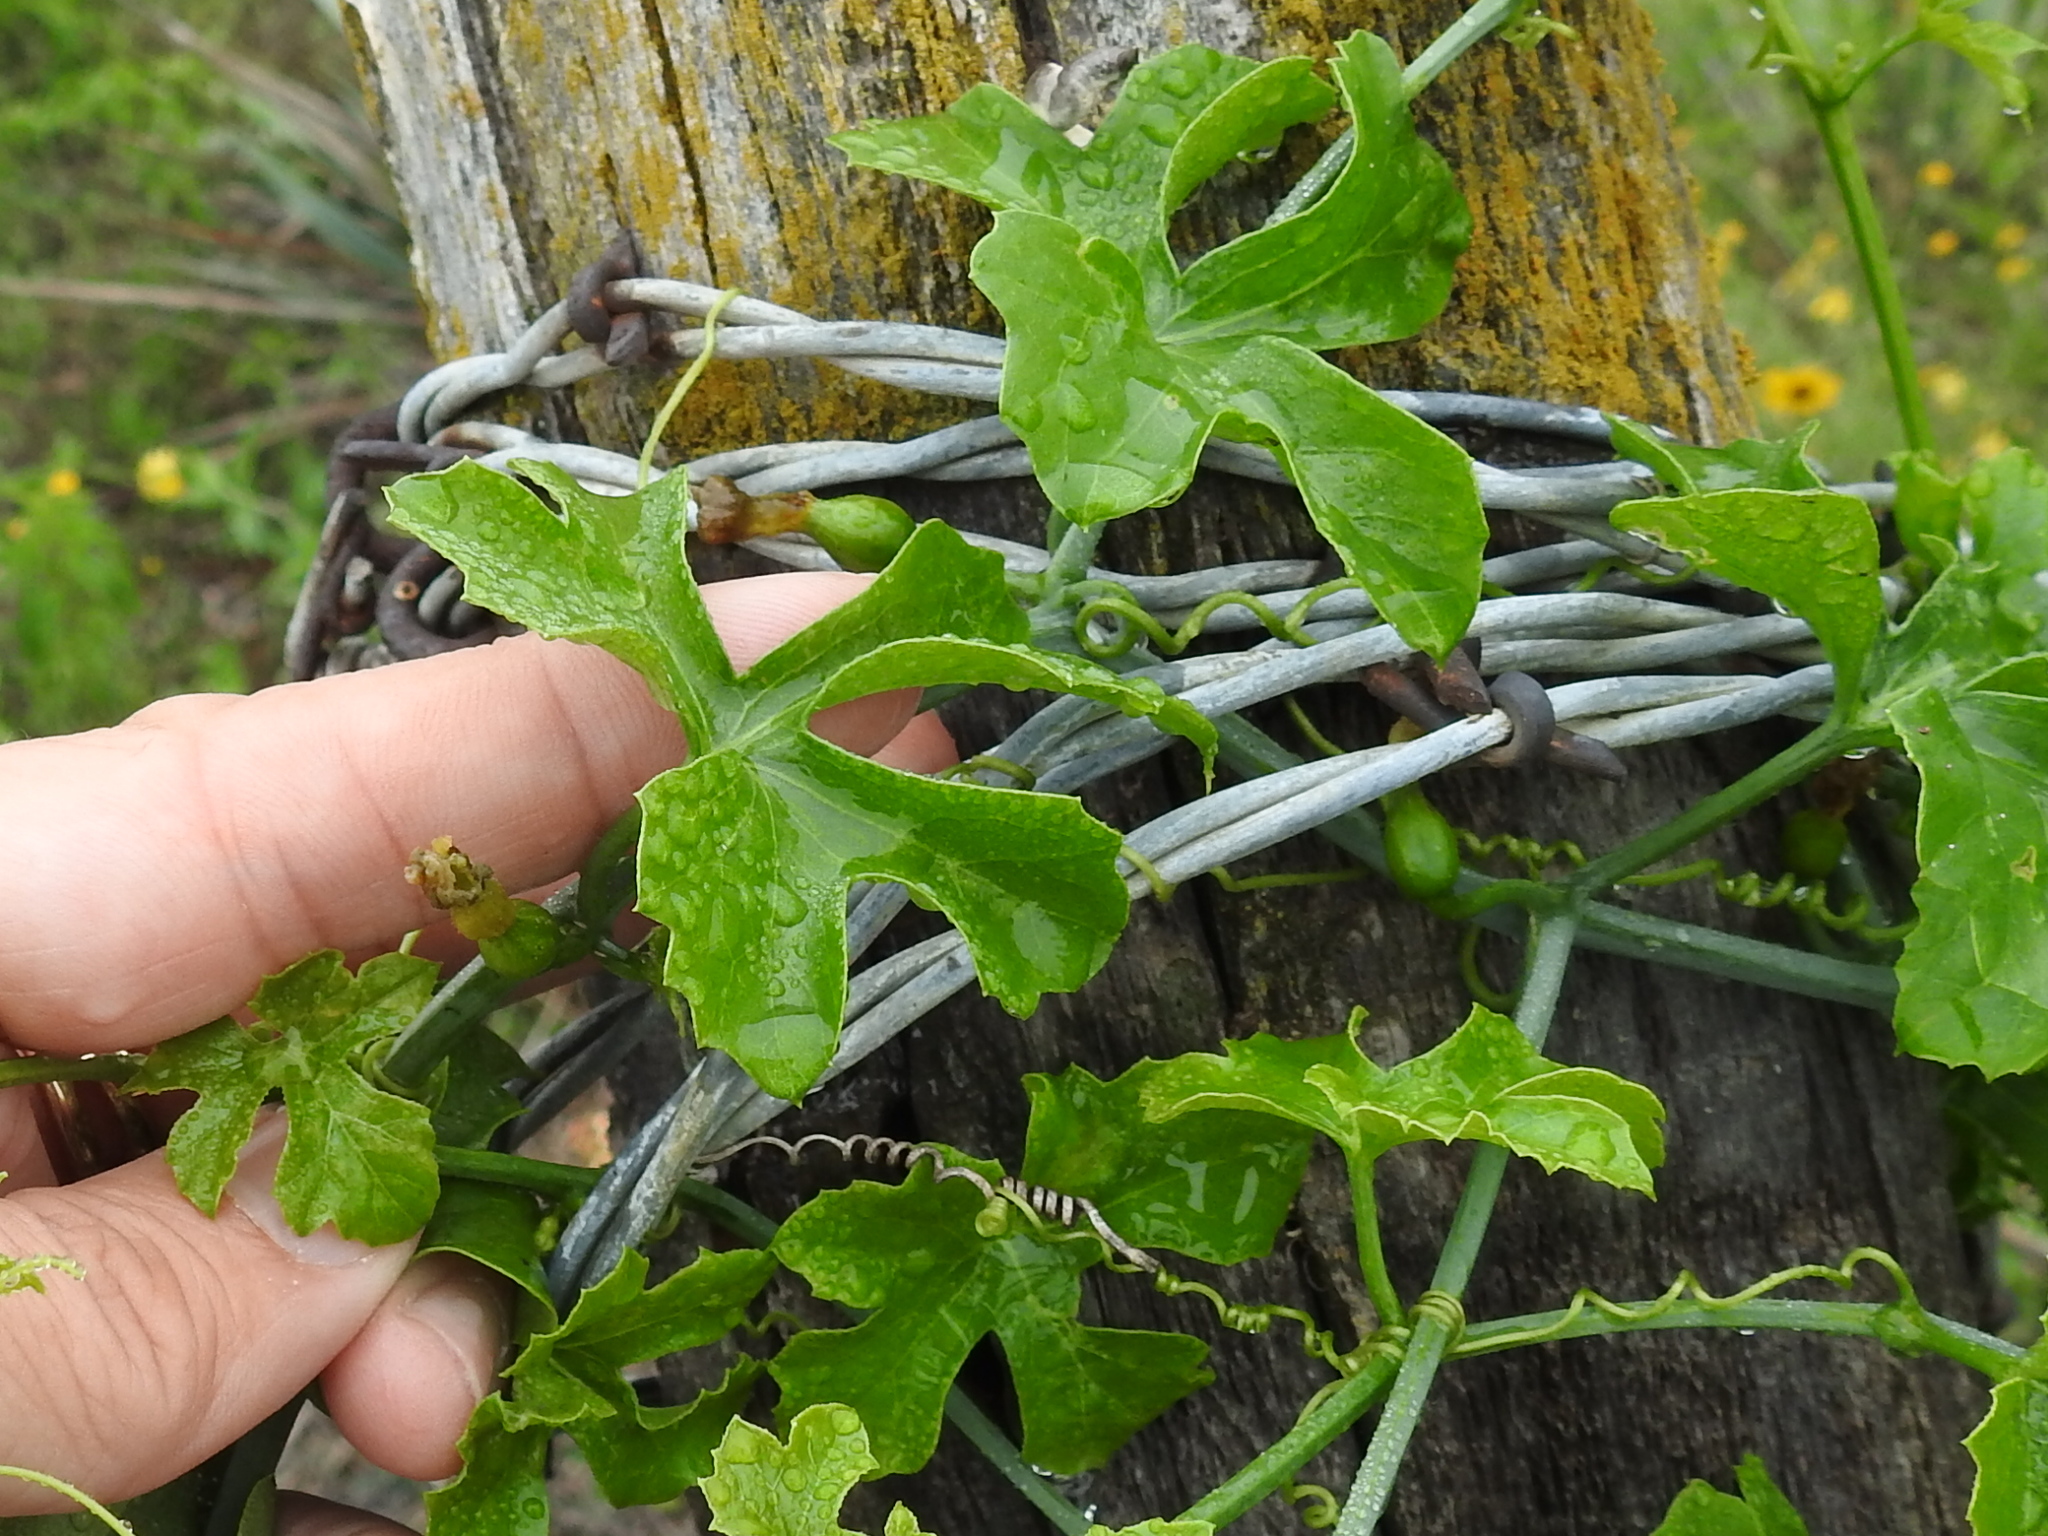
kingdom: Plantae
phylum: Tracheophyta
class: Magnoliopsida
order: Cucurbitales
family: Cucurbitaceae
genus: Ibervillea
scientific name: Ibervillea lindheimeri
